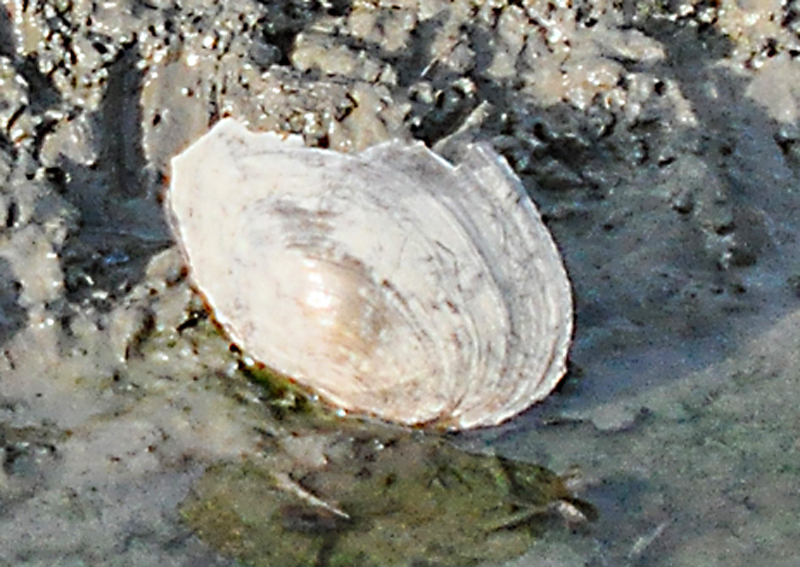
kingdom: Animalia
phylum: Mollusca
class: Bivalvia
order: Unionida
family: Unionidae
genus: Sinanodonta
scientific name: Sinanodonta woodiana
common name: Chinese pond mussel
